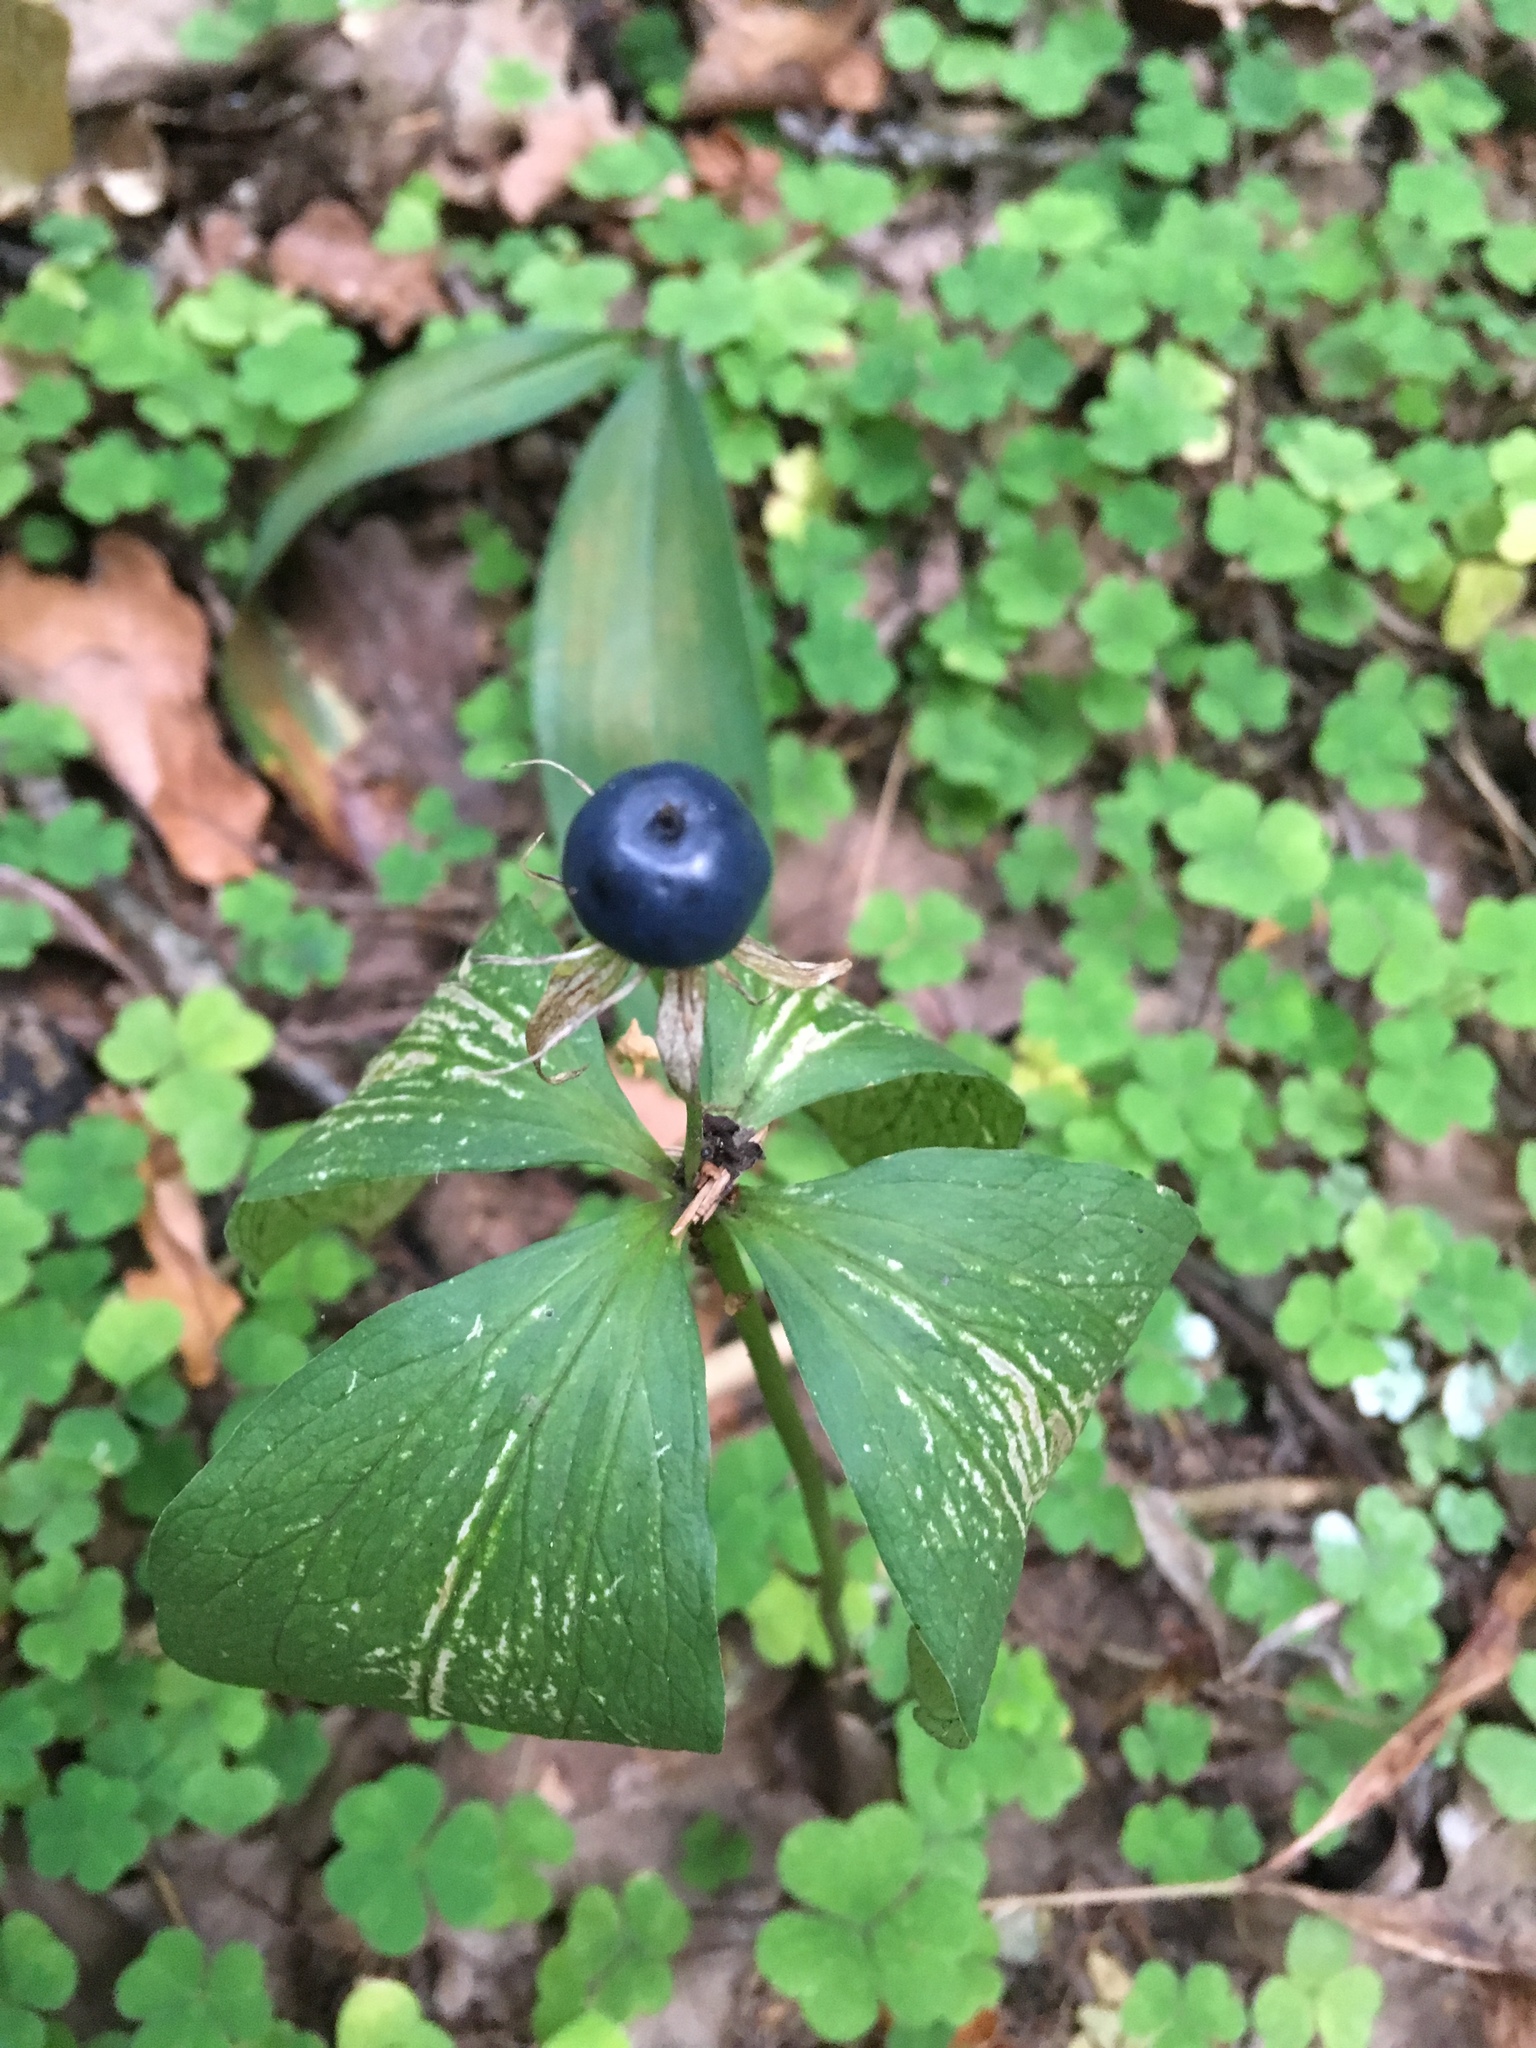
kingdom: Plantae
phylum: Tracheophyta
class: Liliopsida
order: Liliales
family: Melanthiaceae
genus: Paris
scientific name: Paris quadrifolia
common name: Herb-paris
